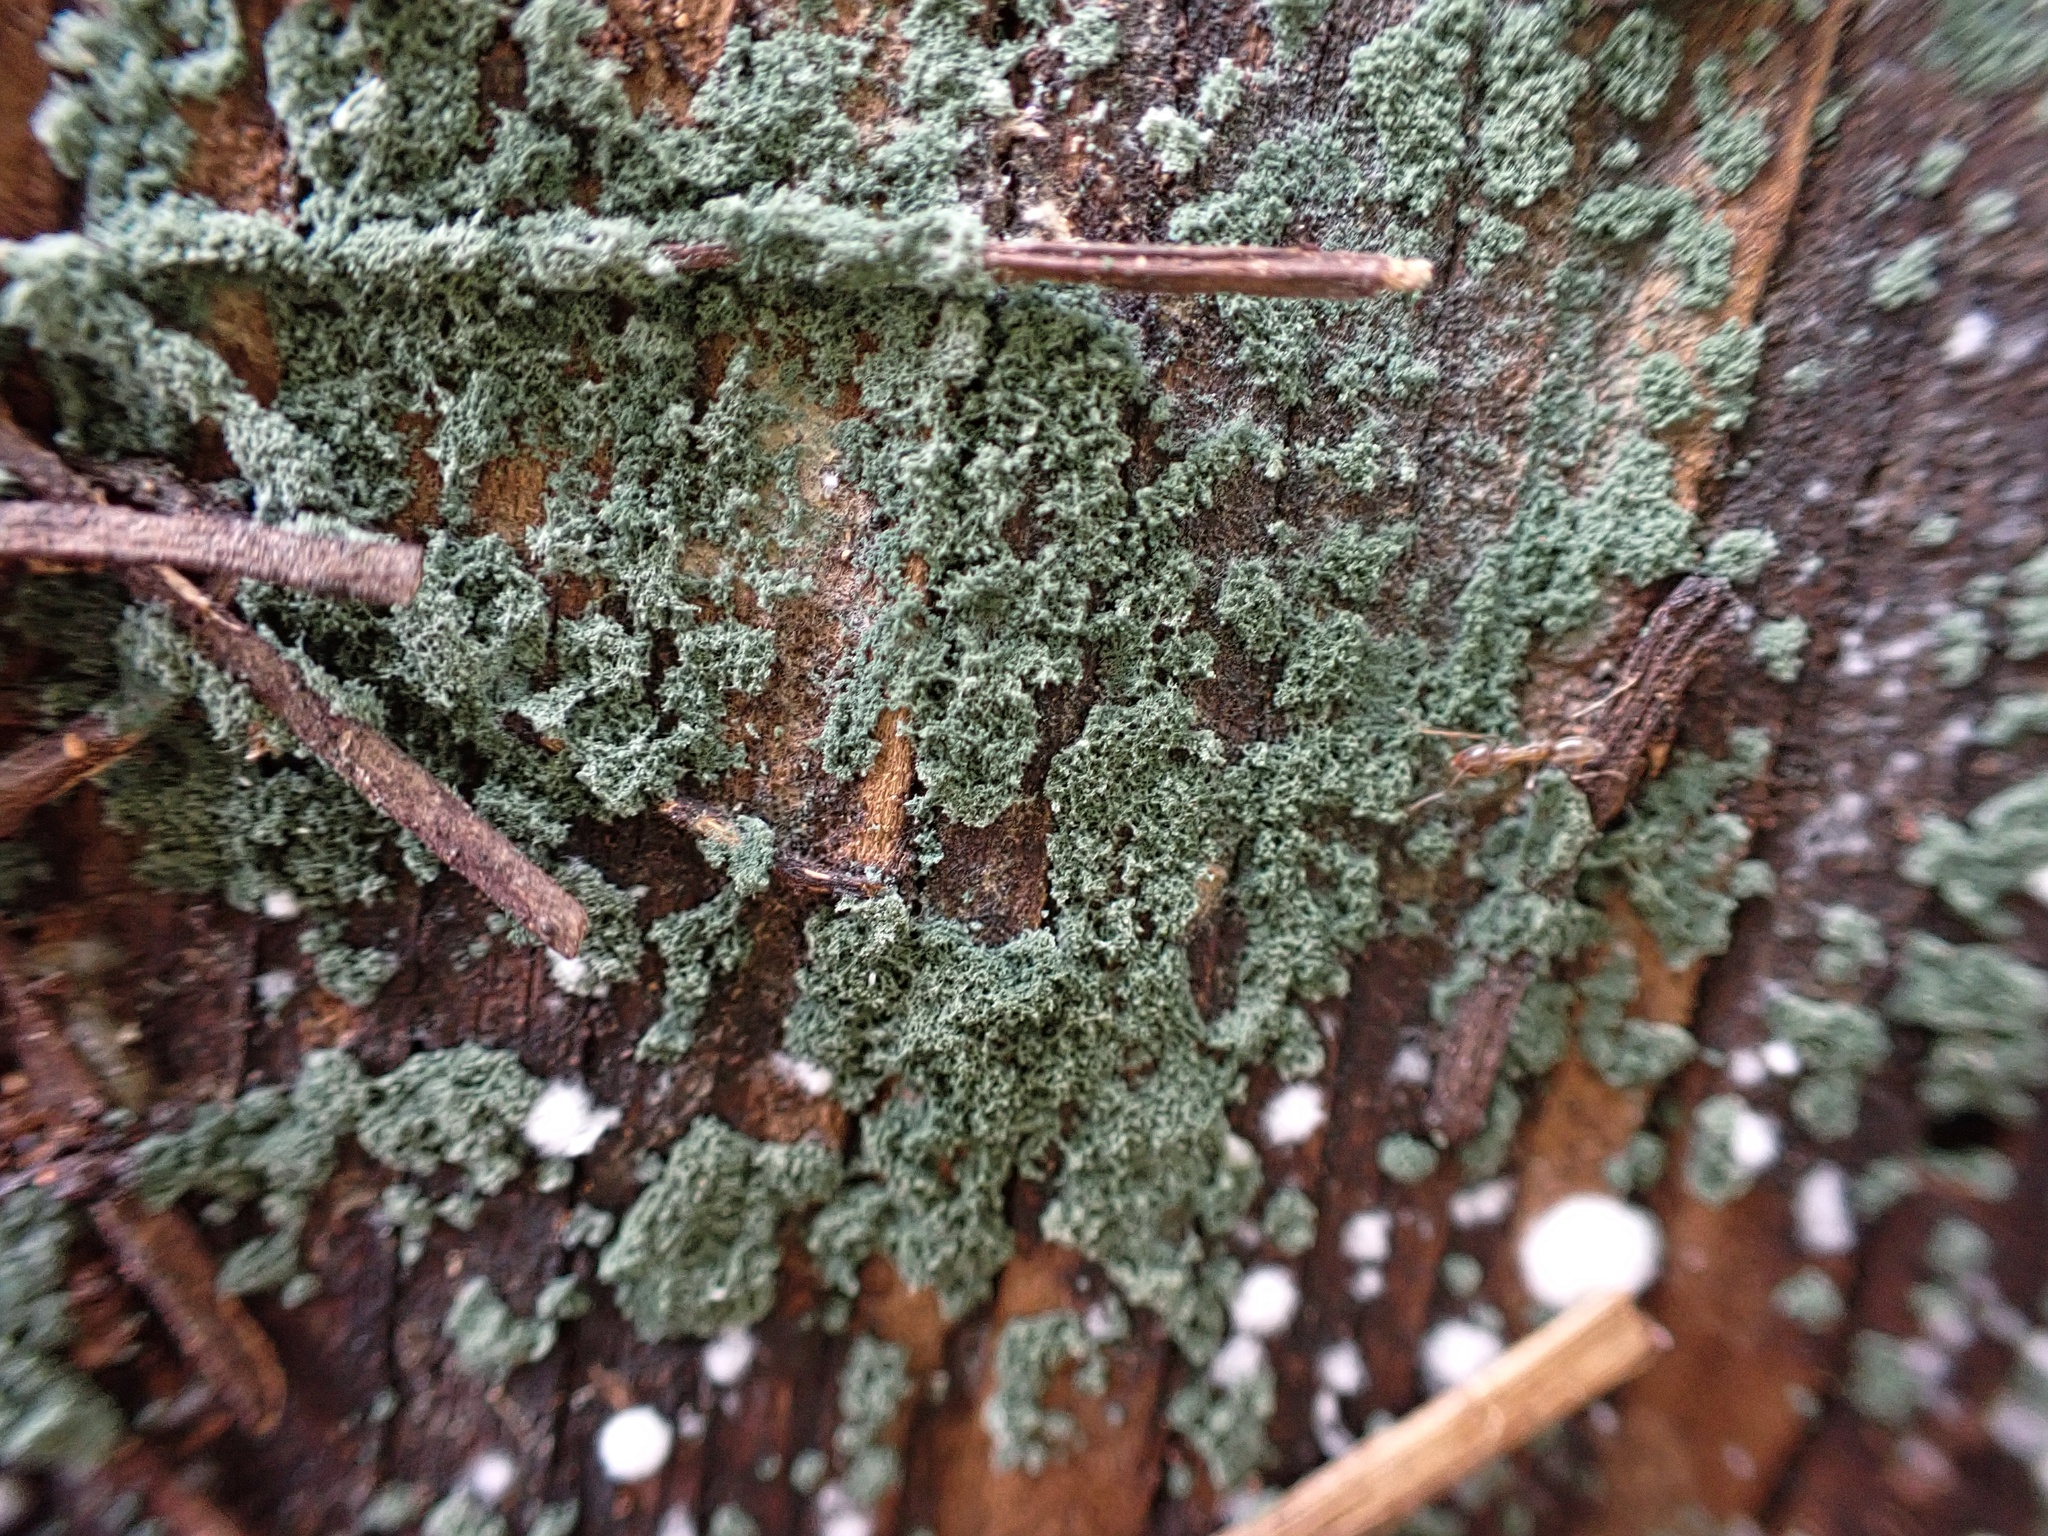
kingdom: Fungi
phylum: Ascomycota
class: Sordariomycetes
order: Hypocreales
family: Hypocreaceae
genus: Trichoderma
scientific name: Trichoderma viride
